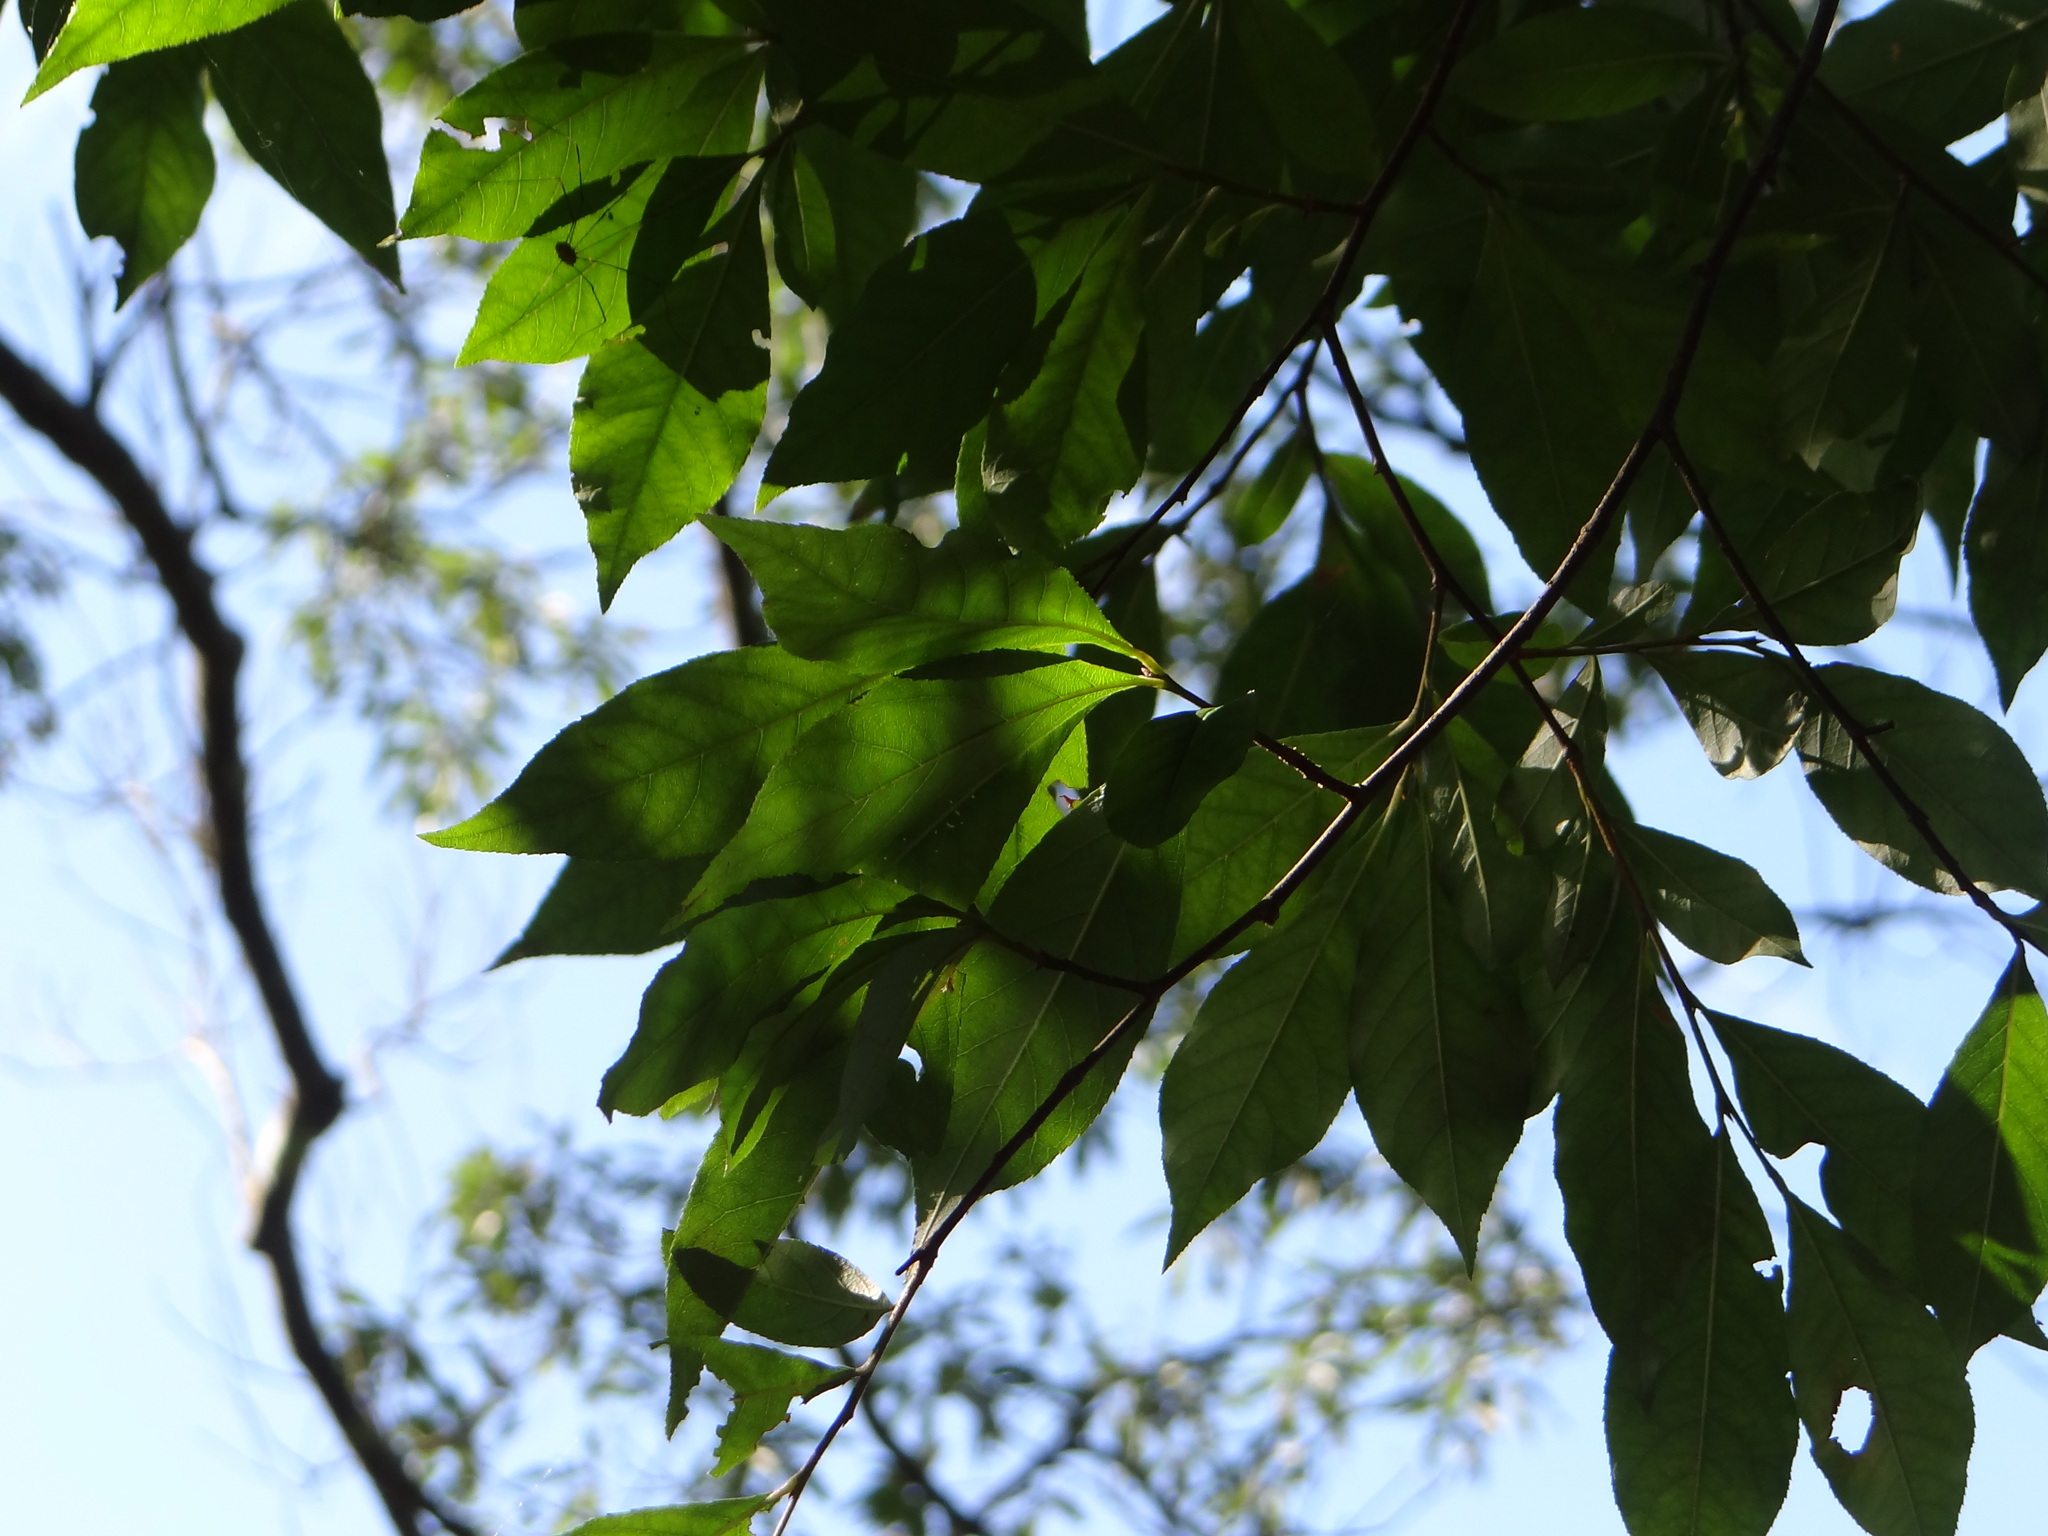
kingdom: Plantae
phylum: Tracheophyta
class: Magnoliopsida
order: Rosales
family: Rosaceae
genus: Pourthiaea
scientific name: Pourthiaea arguta
